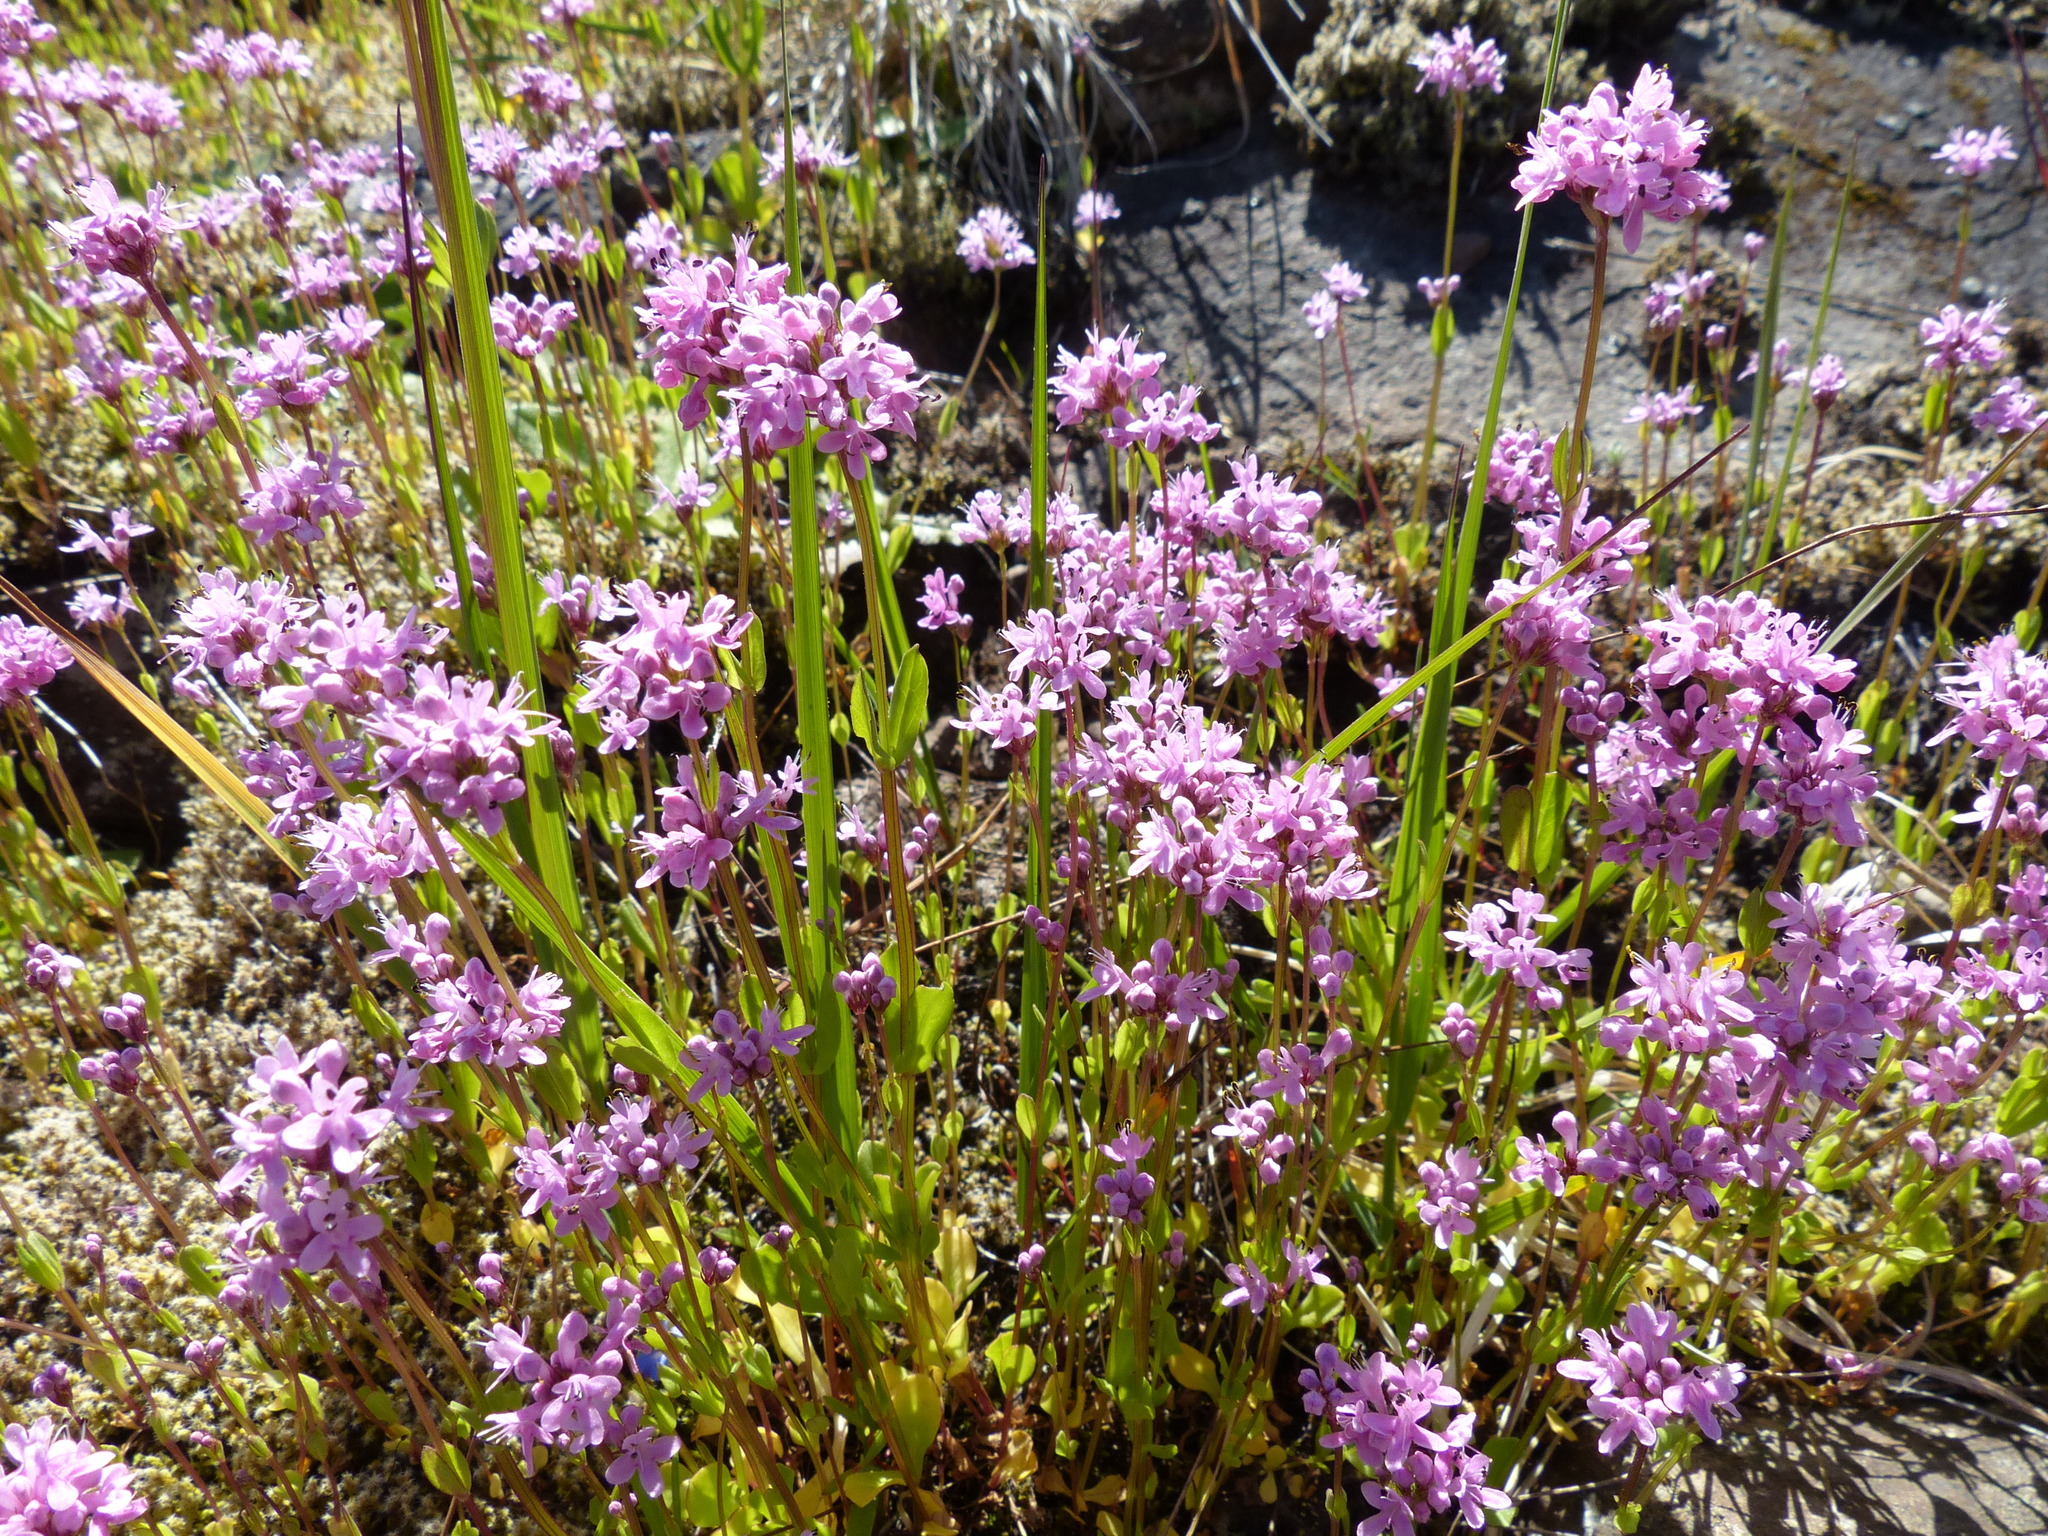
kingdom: Plantae
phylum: Tracheophyta
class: Magnoliopsida
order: Dipsacales
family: Caprifoliaceae
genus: Plectritis
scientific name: Plectritis congesta
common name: Pink plectritis
